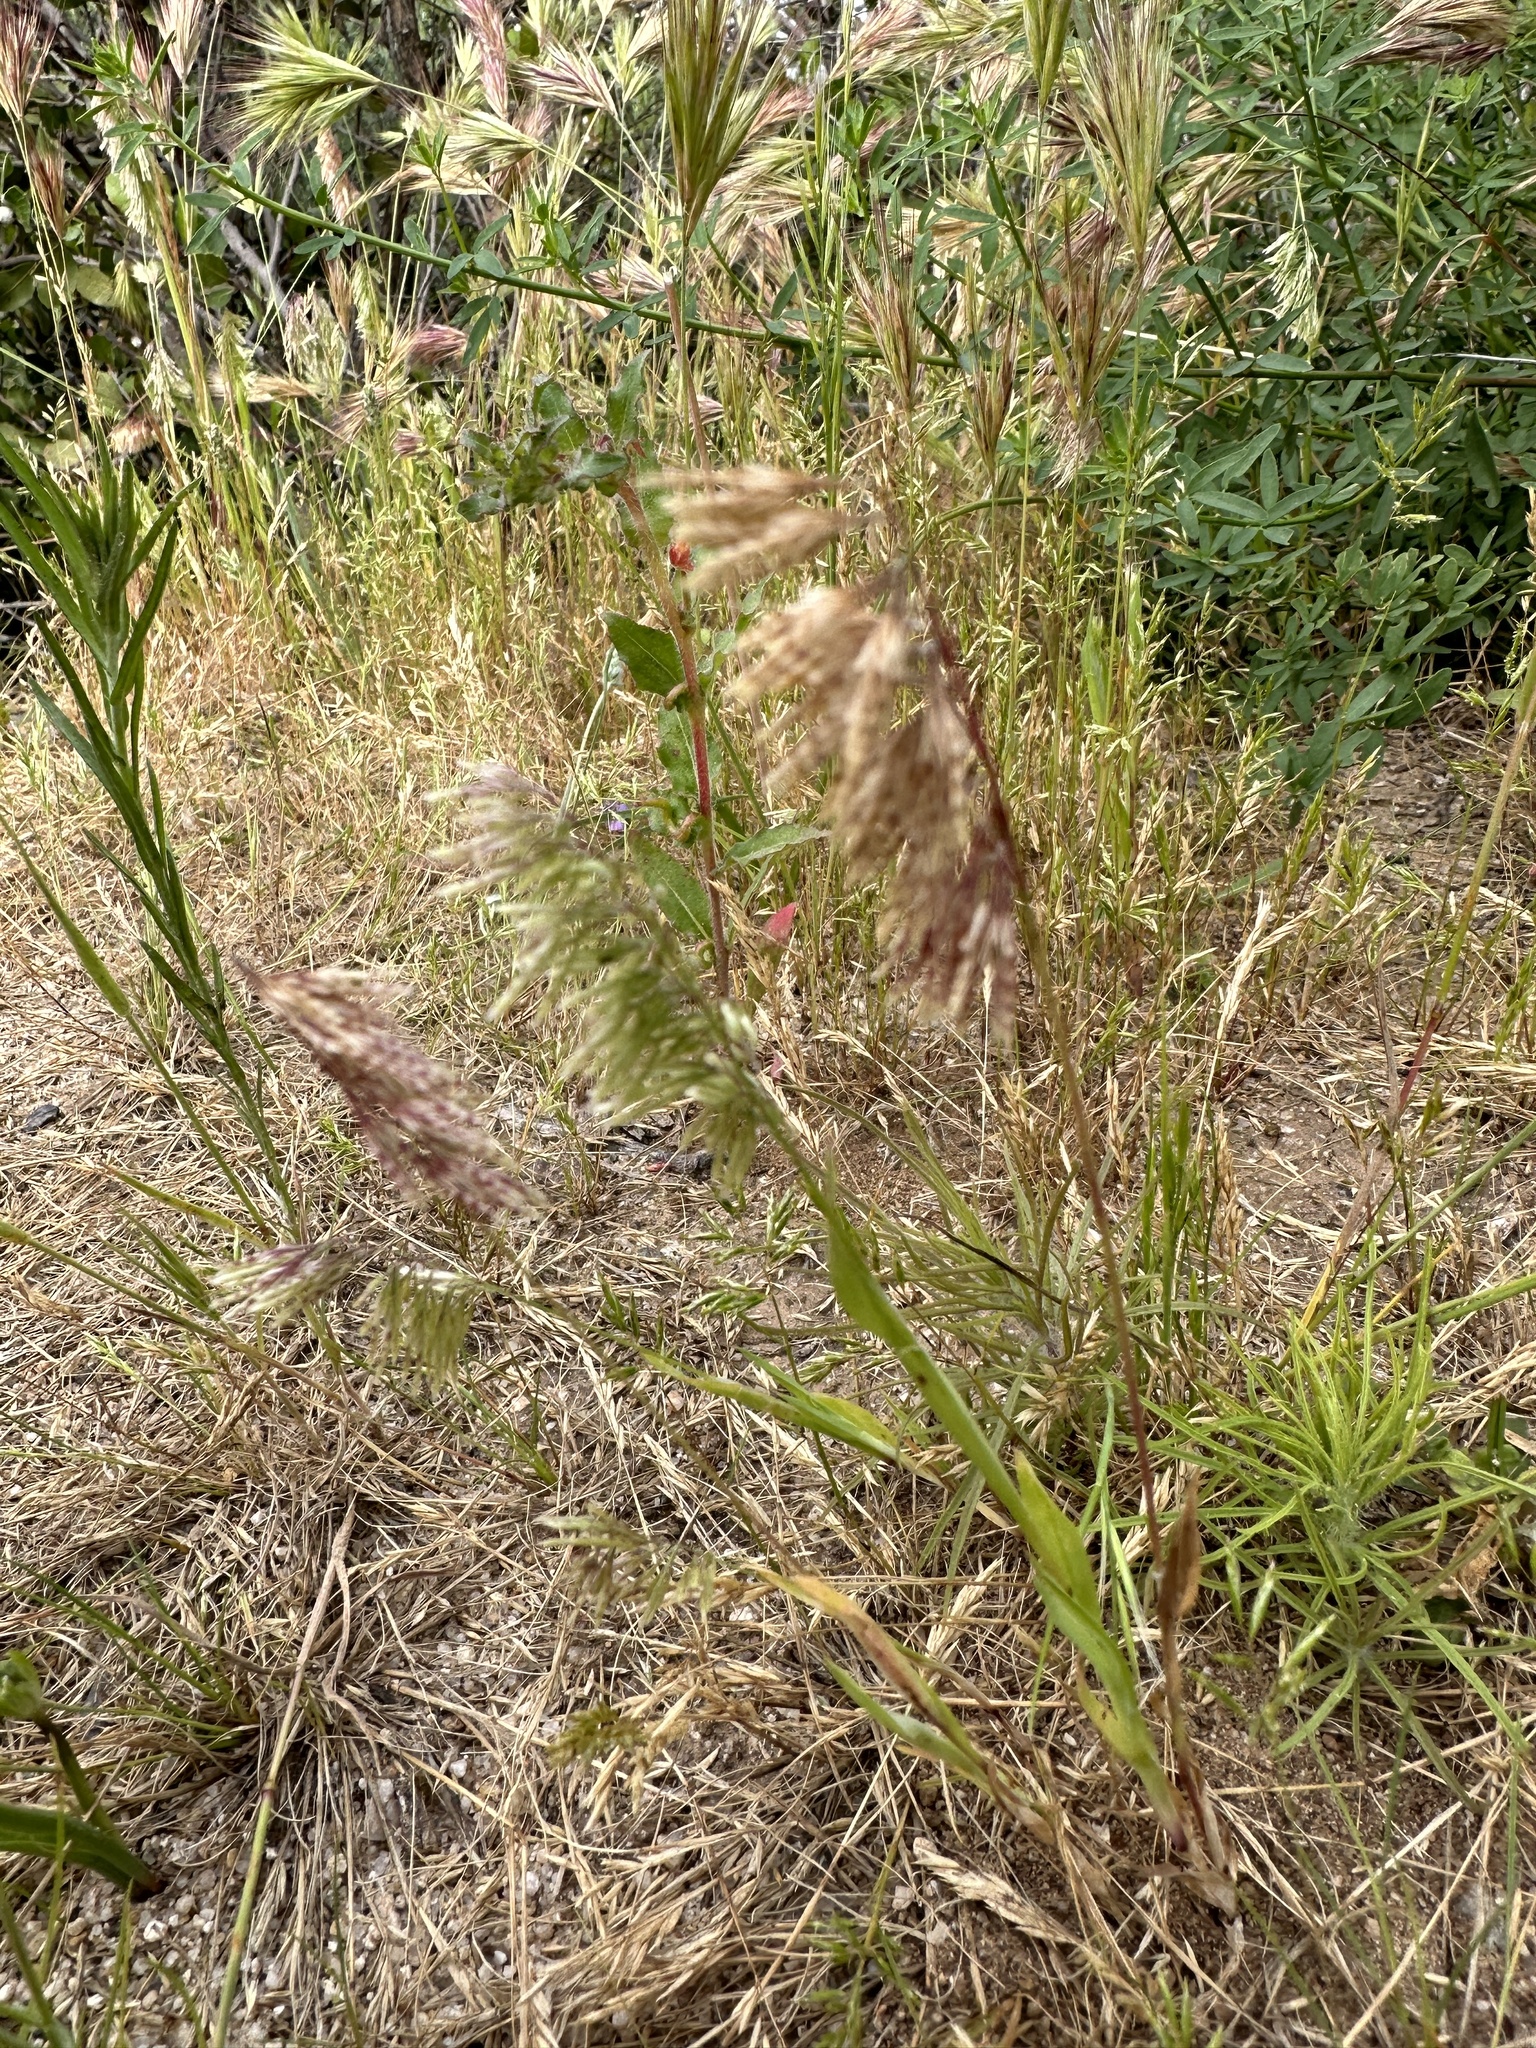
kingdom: Plantae
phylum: Tracheophyta
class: Liliopsida
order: Poales
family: Poaceae
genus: Lamarckia
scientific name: Lamarckia aurea
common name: Golden dog's-tail
